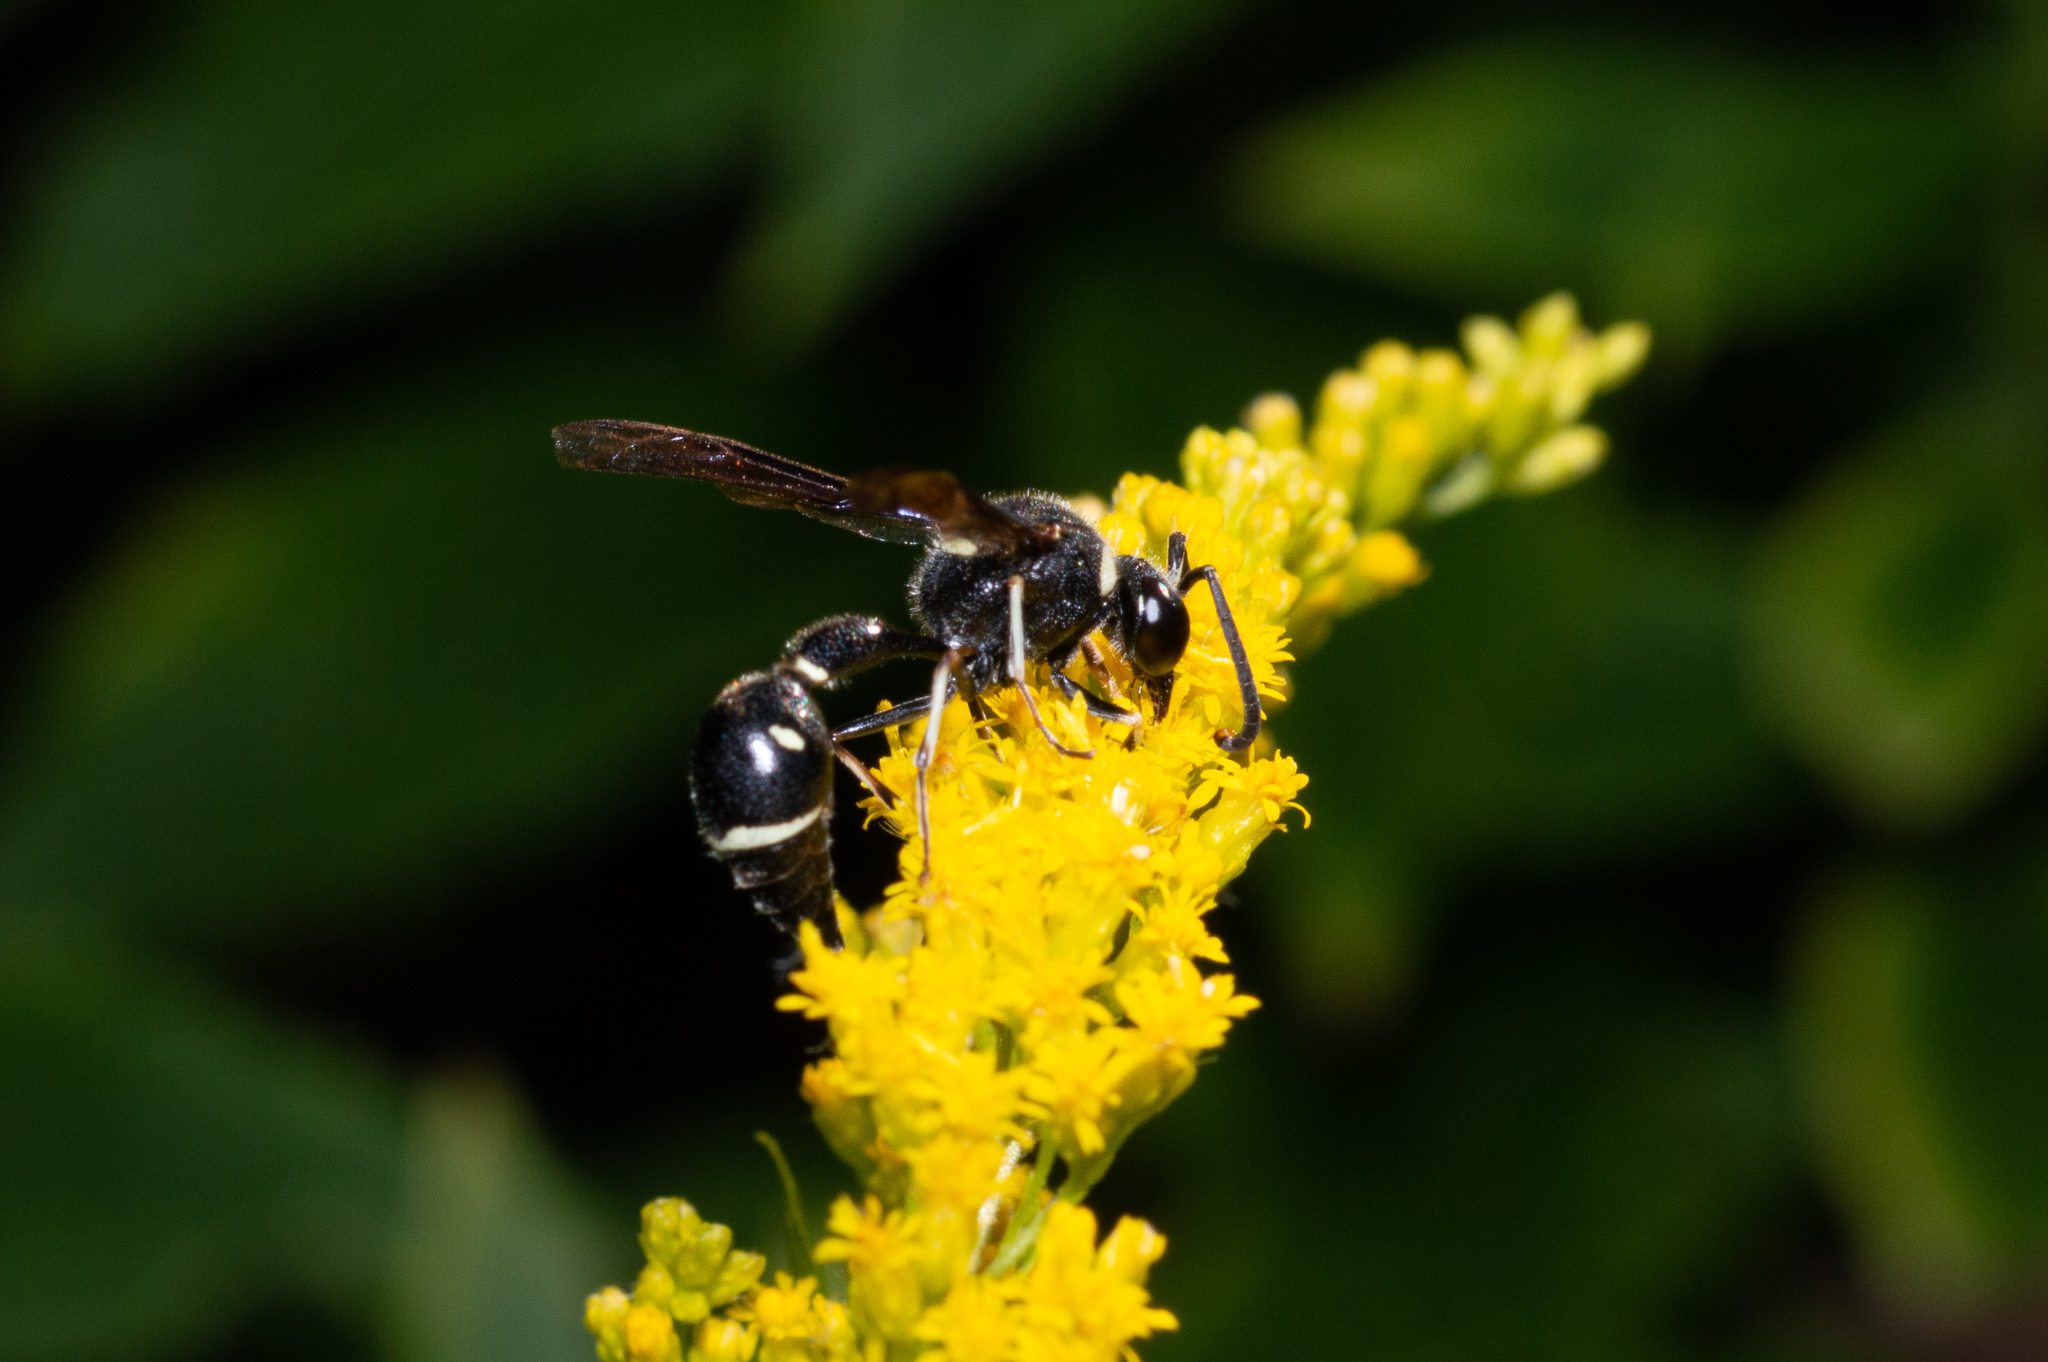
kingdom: Animalia
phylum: Arthropoda
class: Insecta
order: Hymenoptera
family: Vespidae
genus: Eumenes
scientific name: Eumenes fraternus
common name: Fraternal potter wasp
